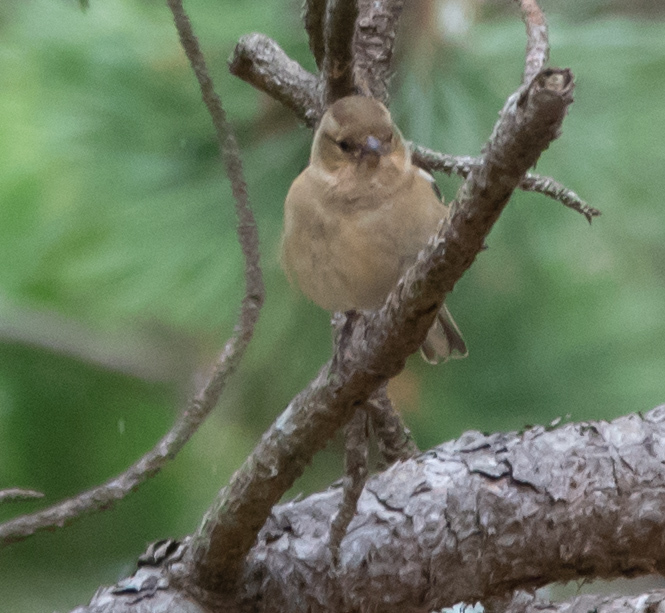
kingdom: Animalia
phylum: Chordata
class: Aves
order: Passeriformes
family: Fringillidae
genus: Fringilla
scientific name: Fringilla coelebs
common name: Common chaffinch
